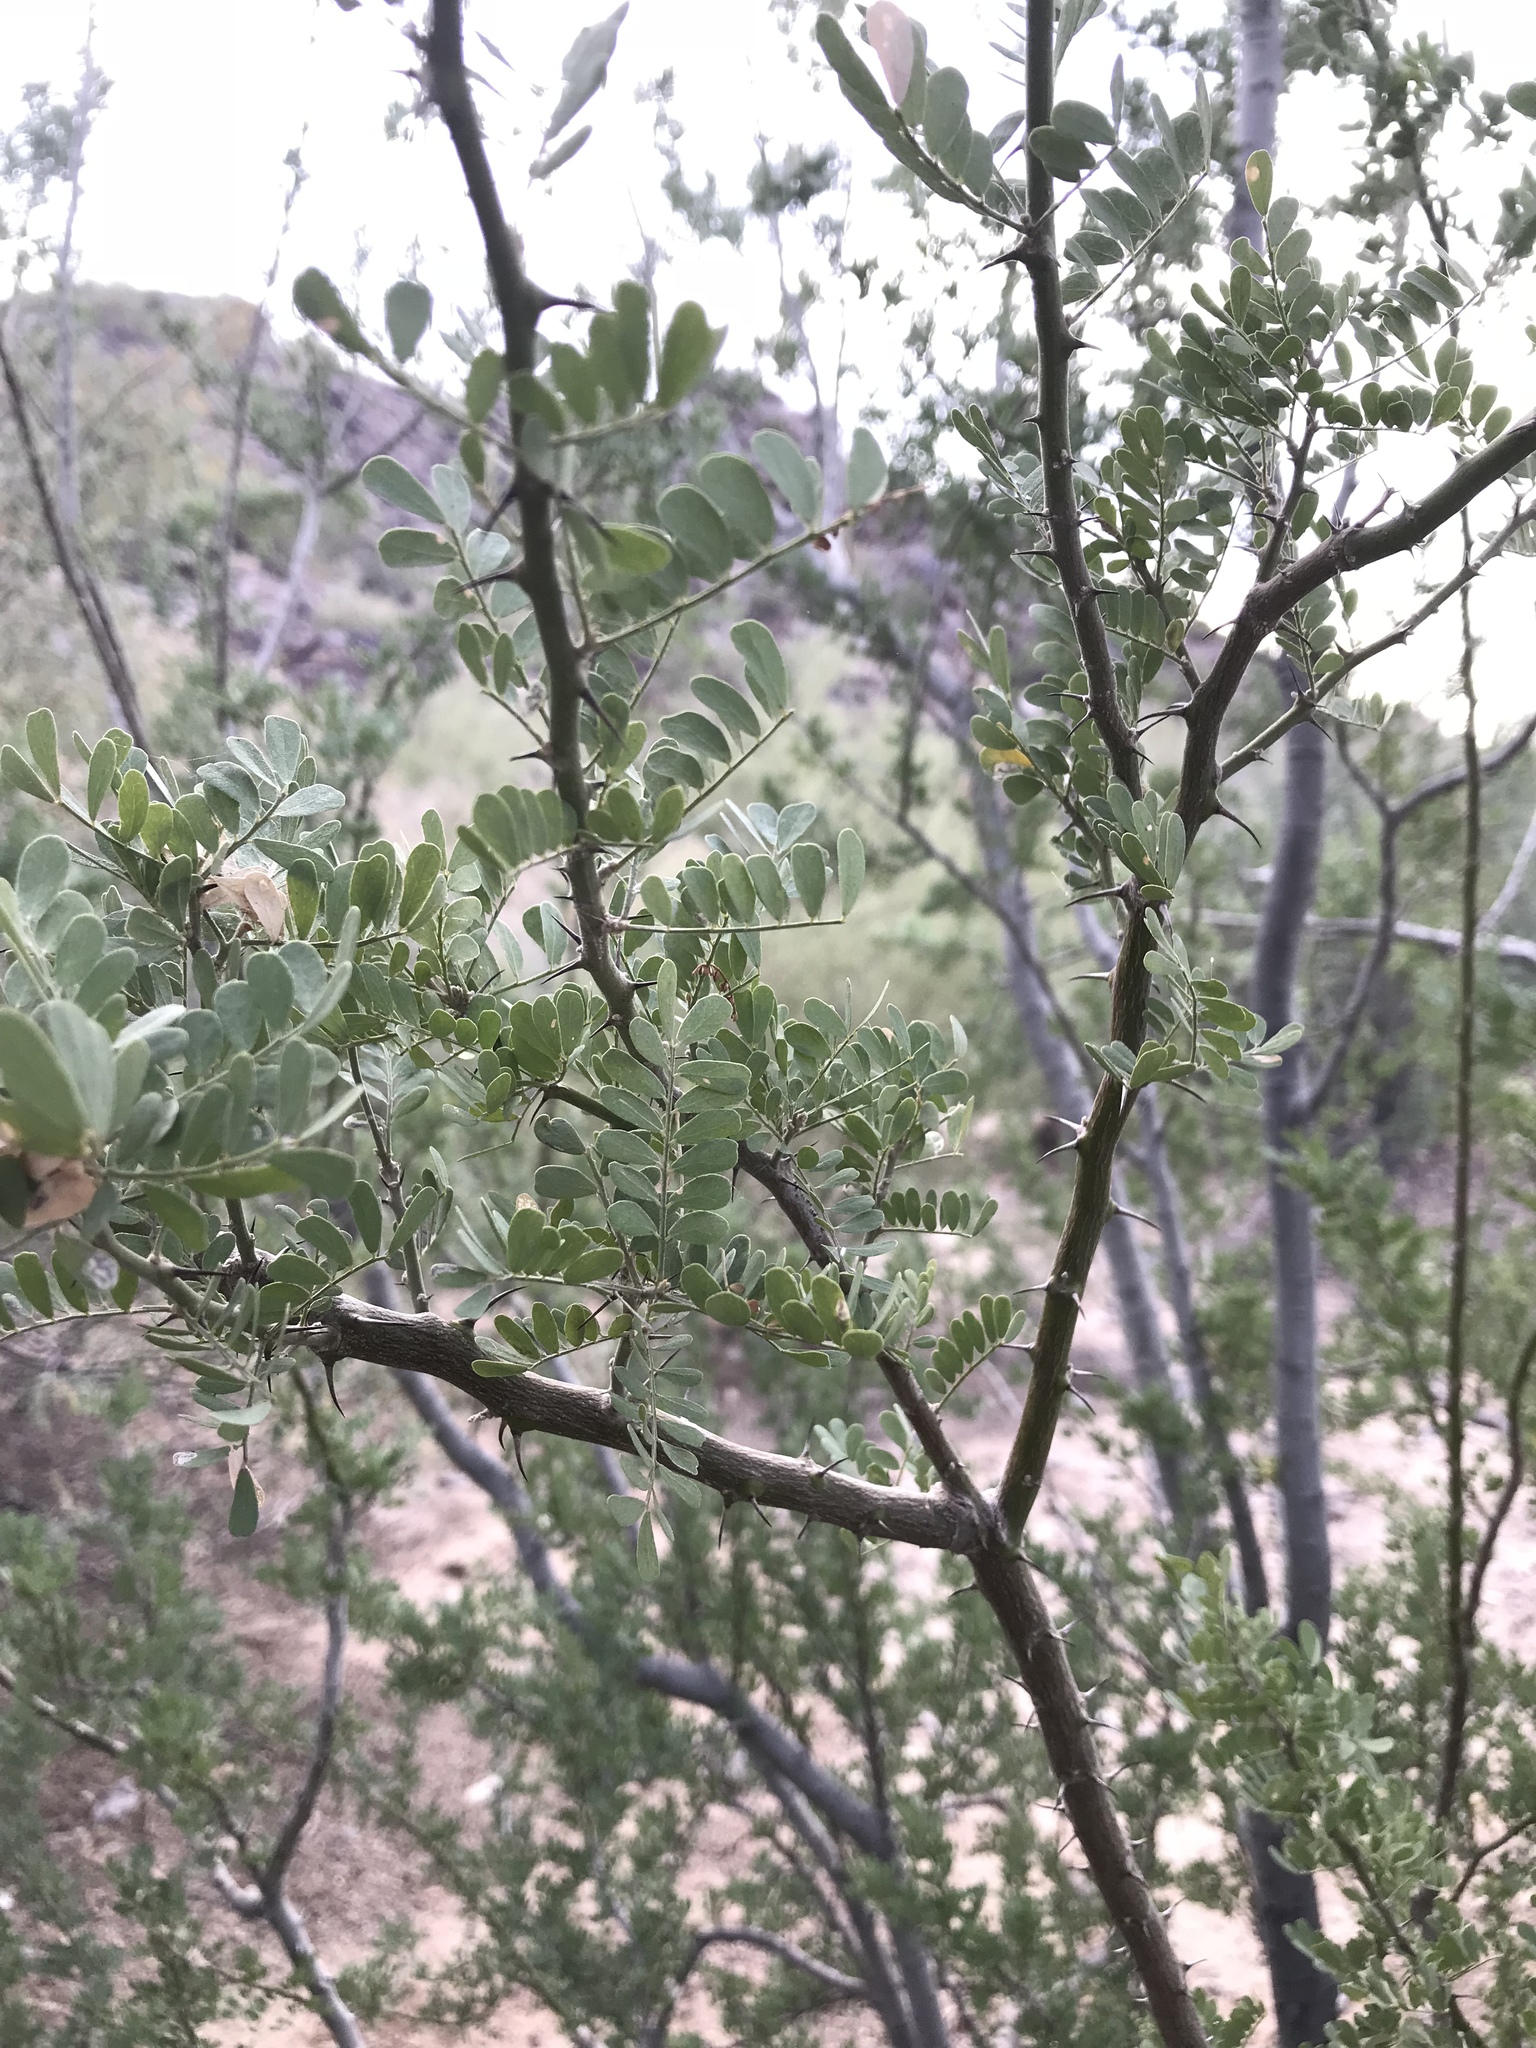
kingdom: Plantae
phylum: Tracheophyta
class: Magnoliopsida
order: Fabales
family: Fabaceae
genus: Olneya
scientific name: Olneya tesota
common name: Desert ironwood
